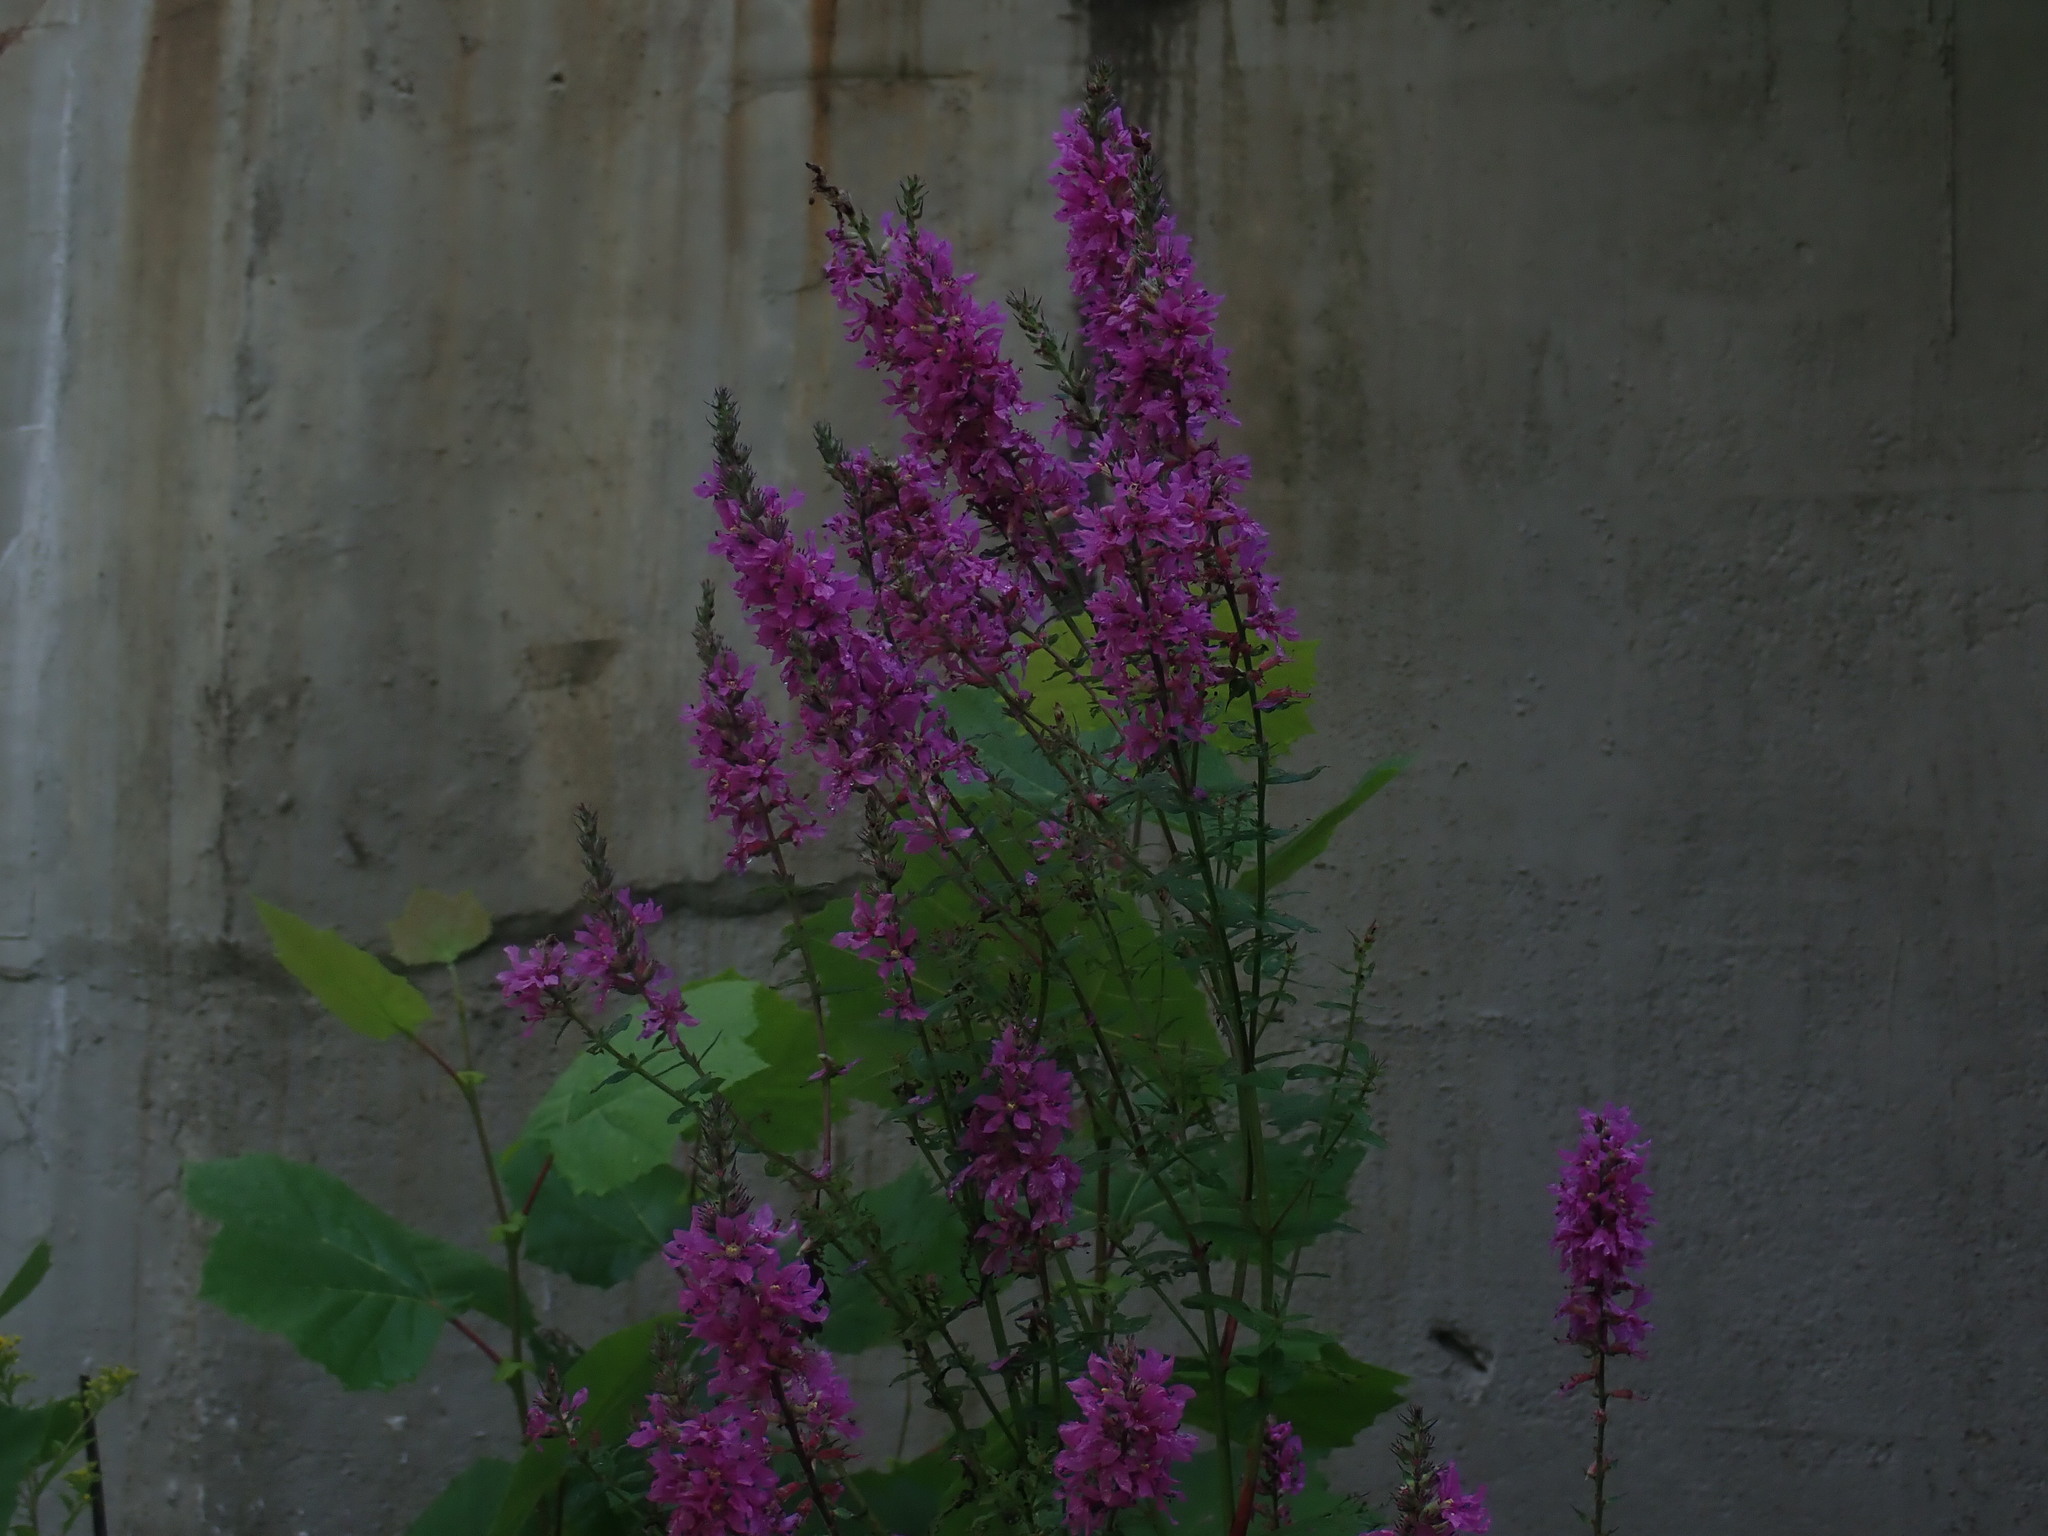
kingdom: Plantae
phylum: Tracheophyta
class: Magnoliopsida
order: Myrtales
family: Lythraceae
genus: Lythrum
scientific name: Lythrum salicaria
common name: Purple loosestrife
